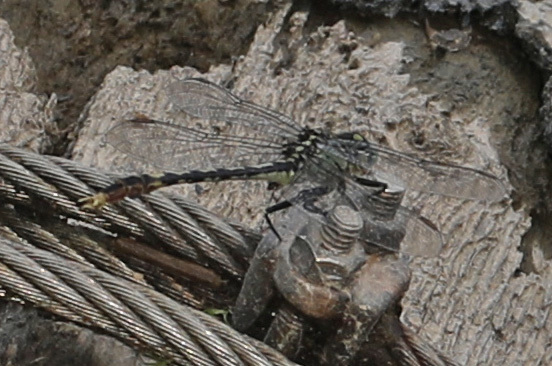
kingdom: Animalia
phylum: Arthropoda
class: Insecta
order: Odonata
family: Gomphidae
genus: Arigomphus
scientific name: Arigomphus villosipes
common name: Unicorn clubtail
